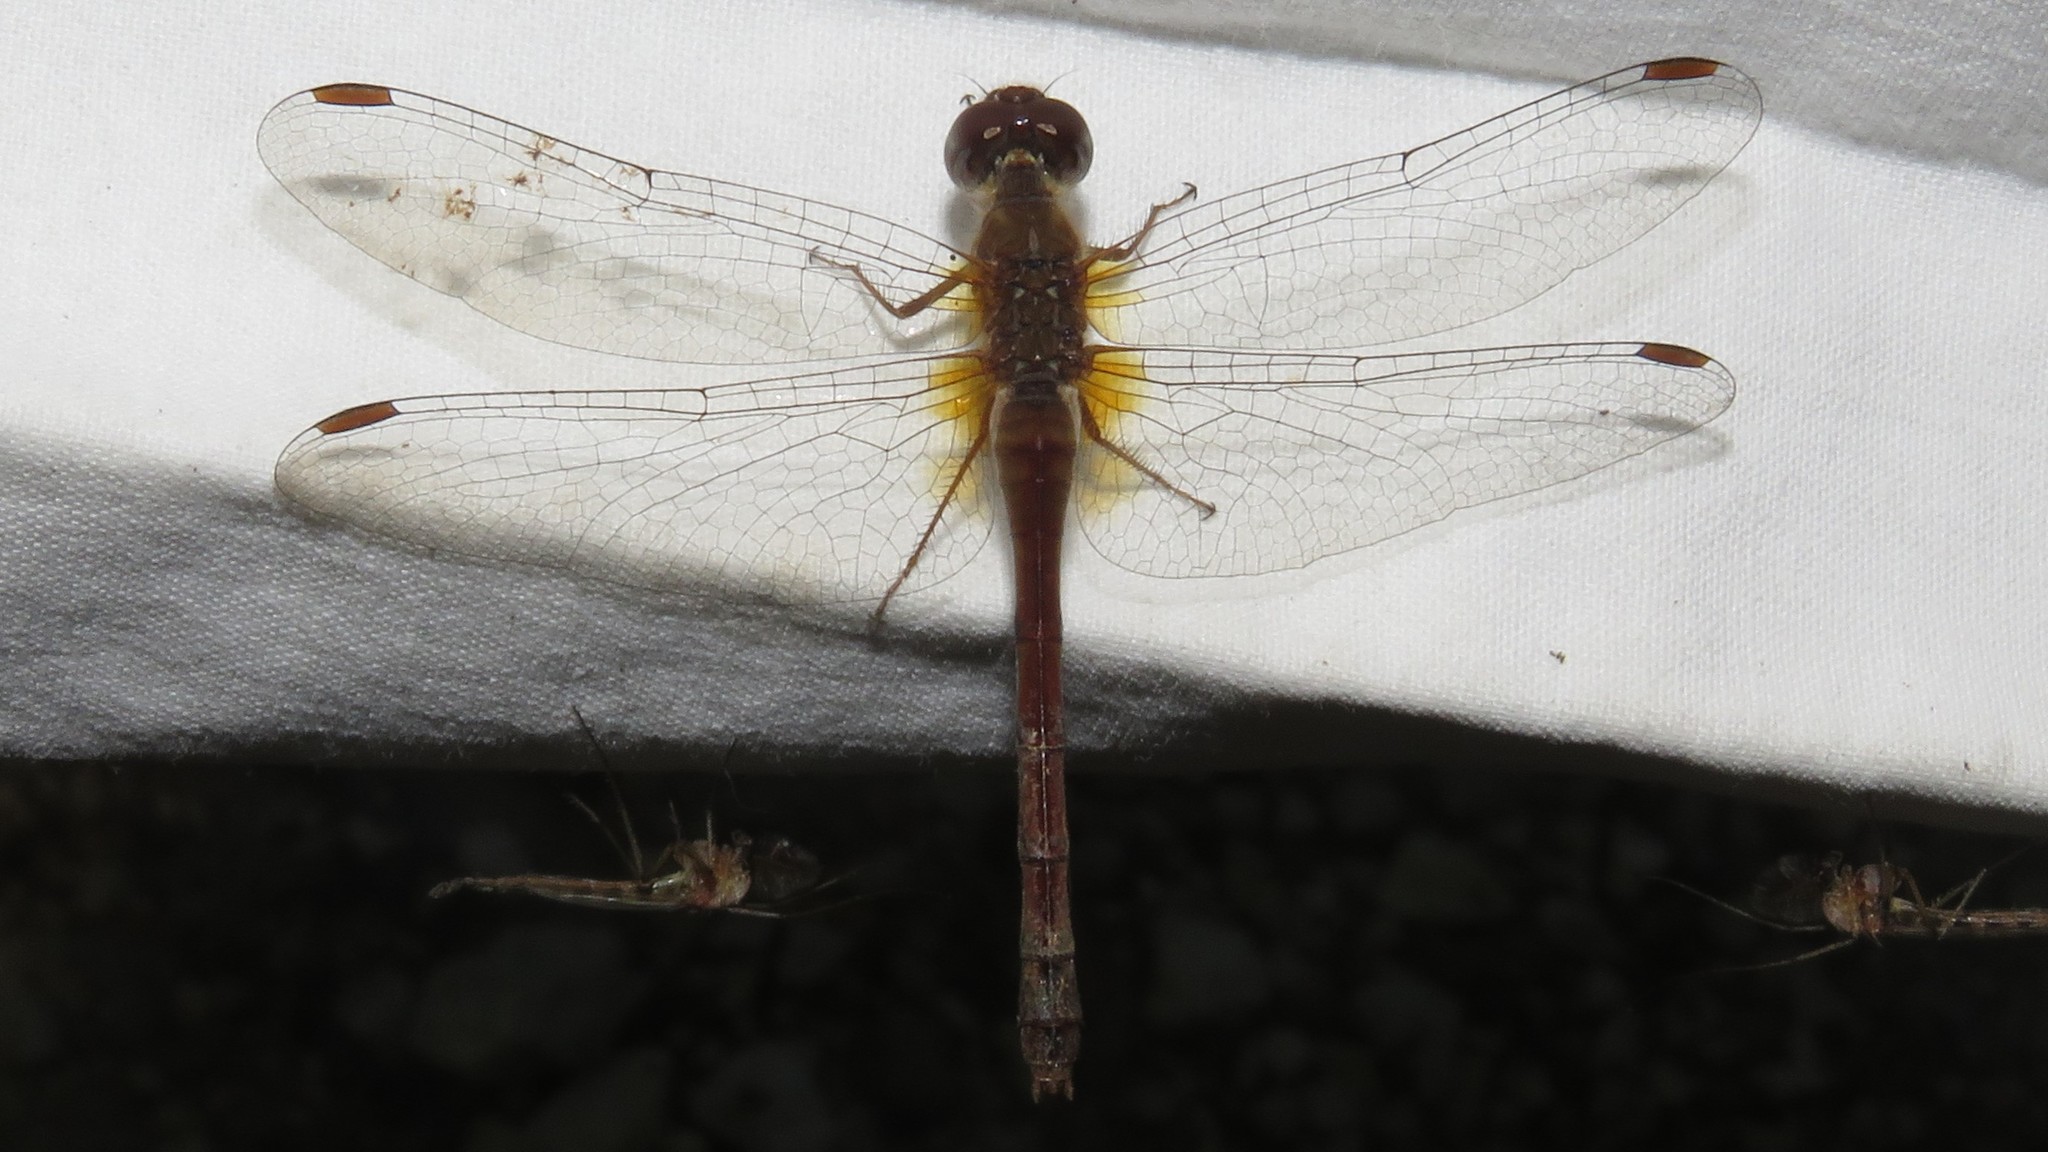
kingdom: Animalia
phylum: Arthropoda
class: Insecta
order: Odonata
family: Libellulidae
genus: Sympetrum
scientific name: Sympetrum vicinum
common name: Autumn meadowhawk
